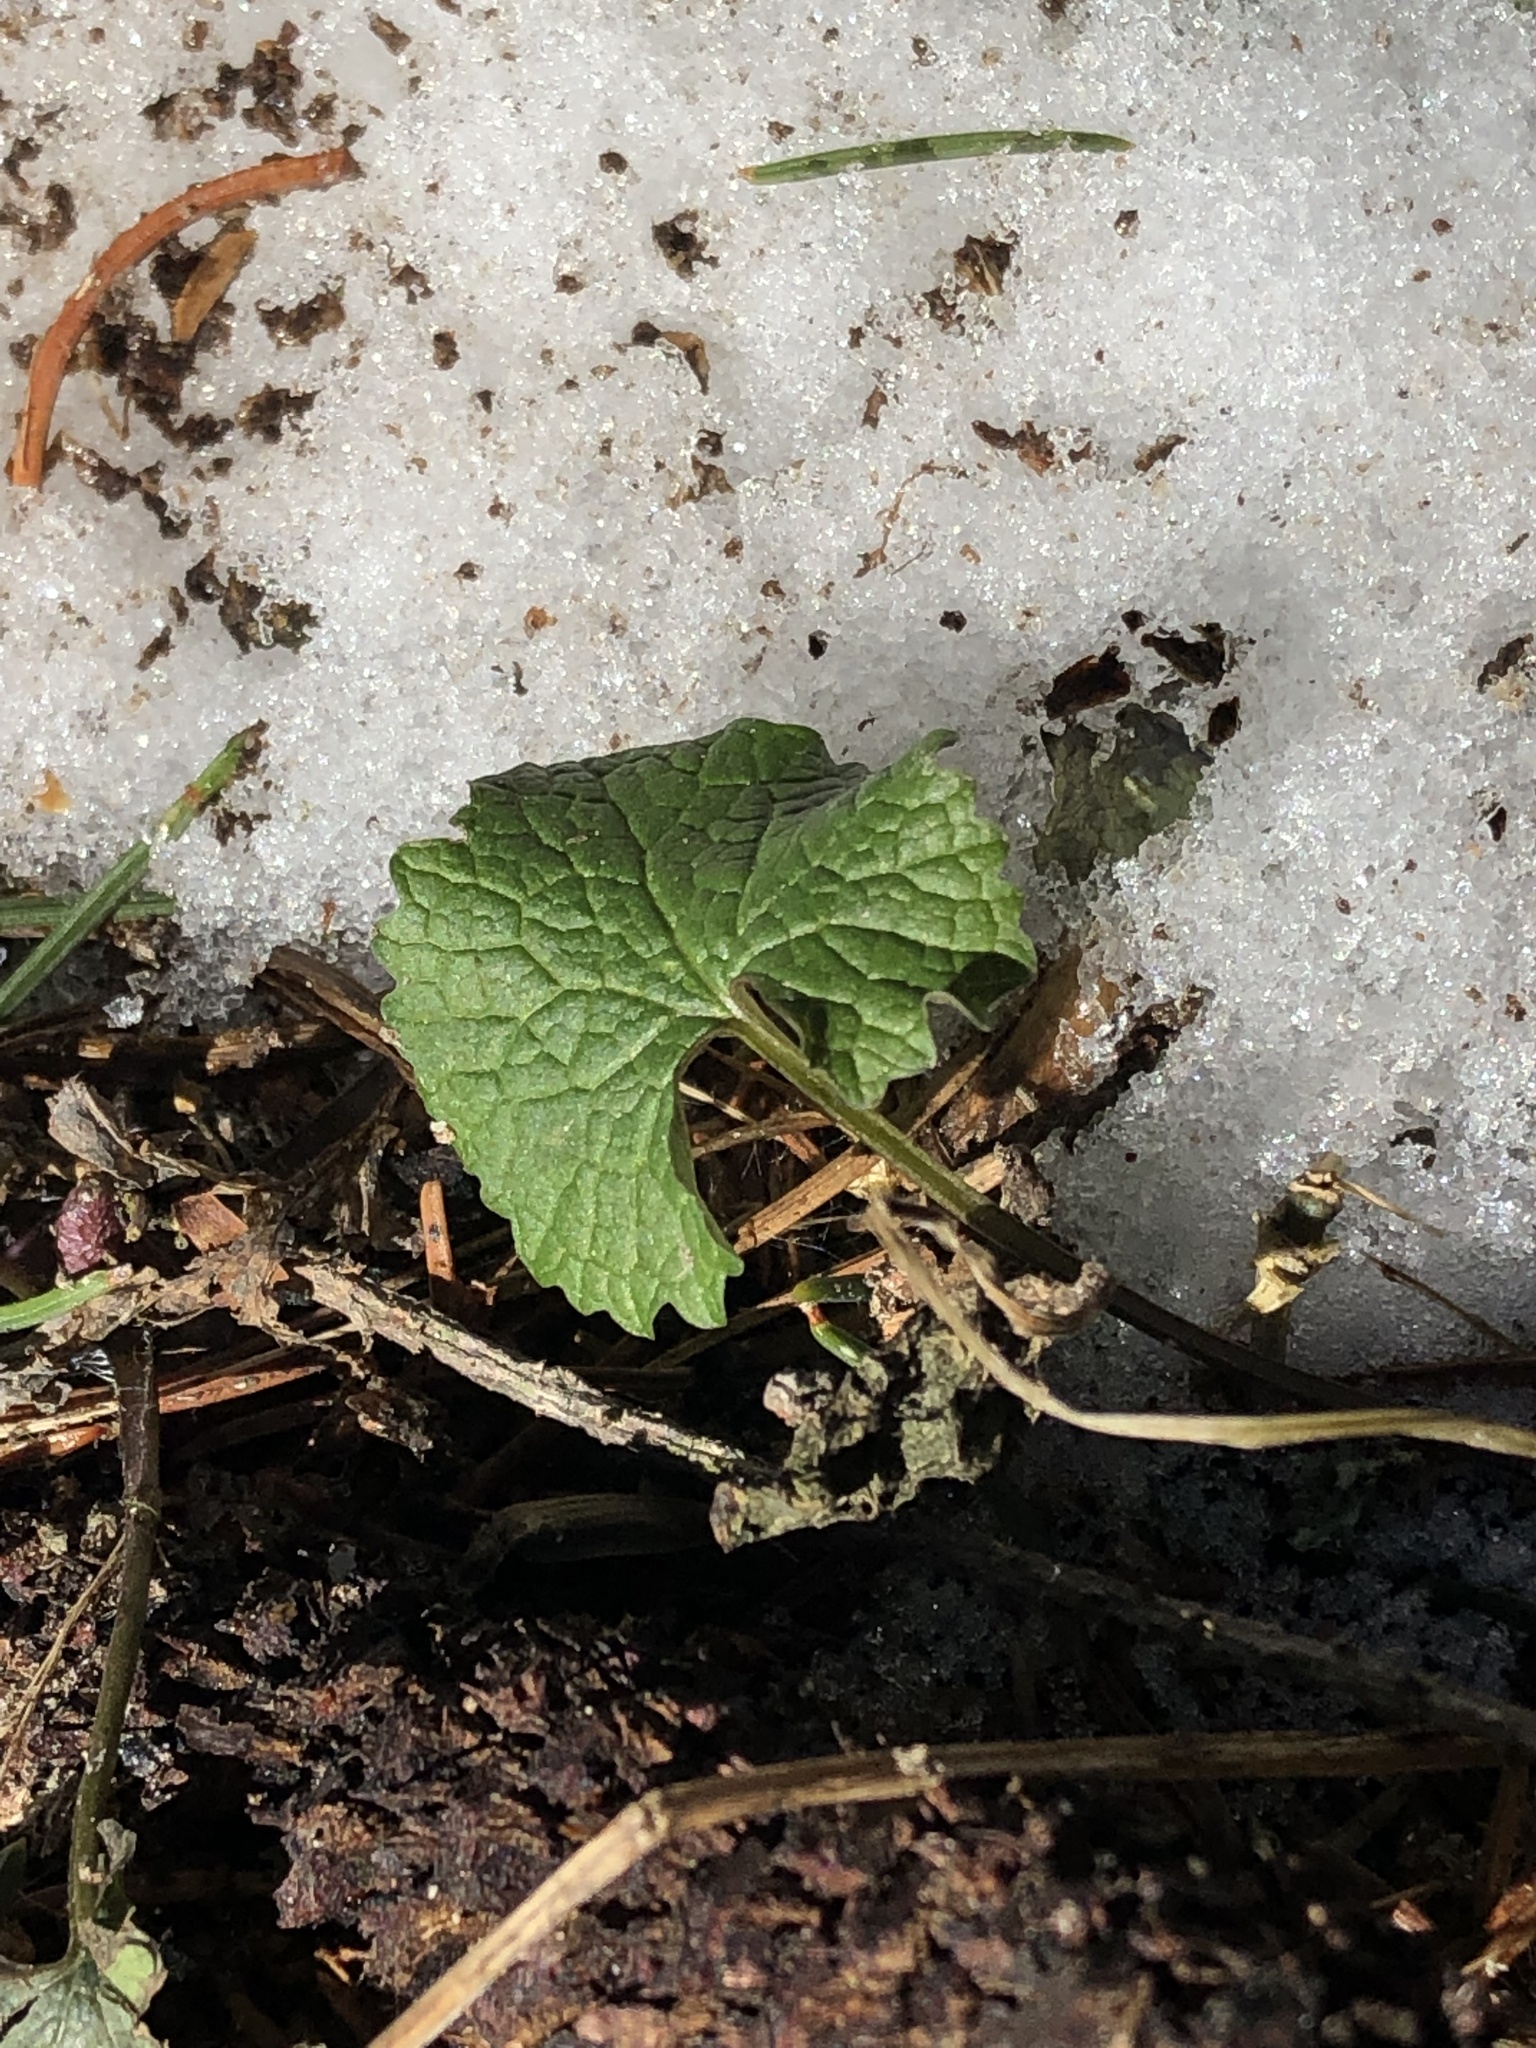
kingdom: Plantae
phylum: Tracheophyta
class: Magnoliopsida
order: Brassicales
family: Brassicaceae
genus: Alliaria
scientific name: Alliaria petiolata
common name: Garlic mustard
